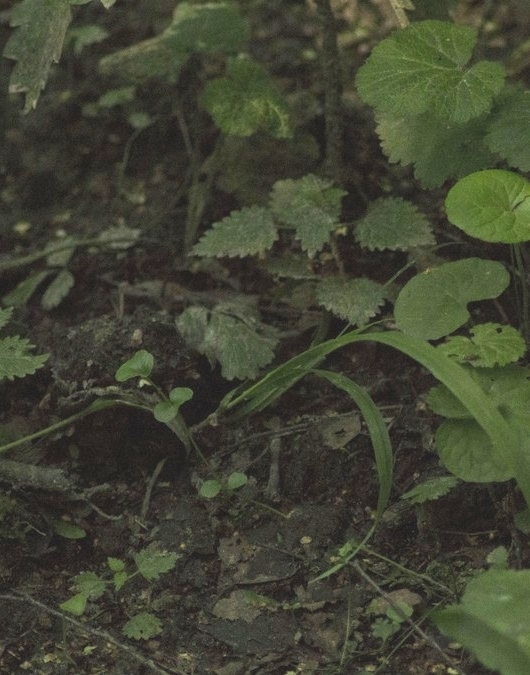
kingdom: Plantae
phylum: Tracheophyta
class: Magnoliopsida
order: Rosales
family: Urticaceae
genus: Urtica
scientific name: Urtica dioica
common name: Common nettle
